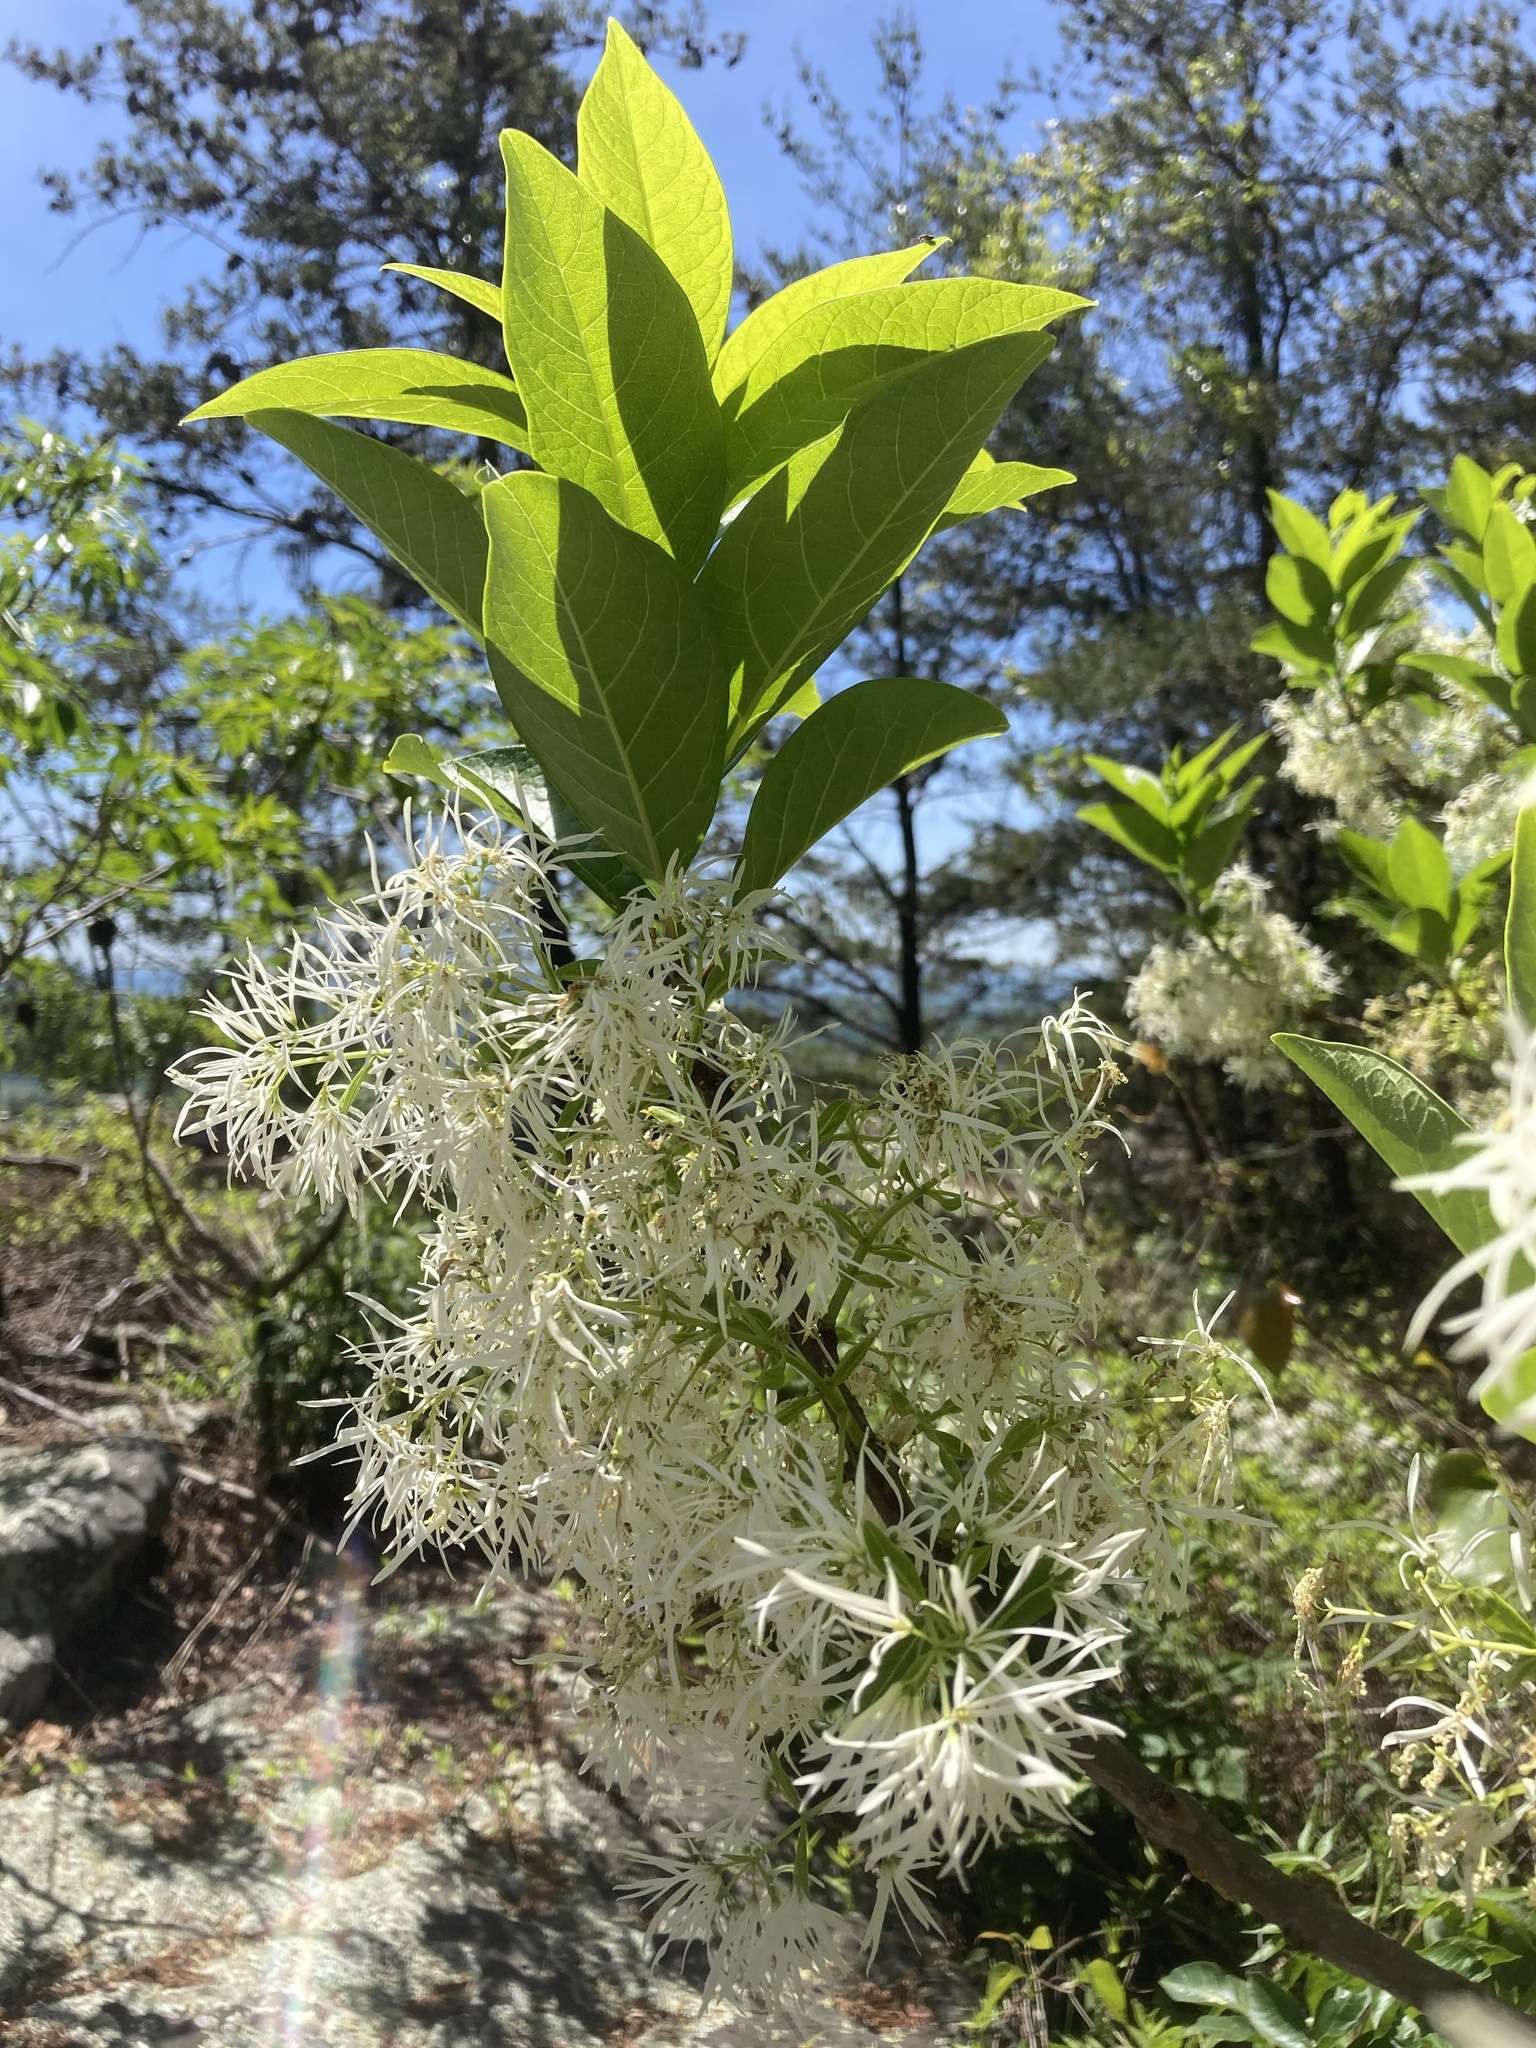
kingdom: Plantae
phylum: Tracheophyta
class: Magnoliopsida
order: Lamiales
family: Oleaceae
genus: Chionanthus
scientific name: Chionanthus virginicus
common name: American fringetree
